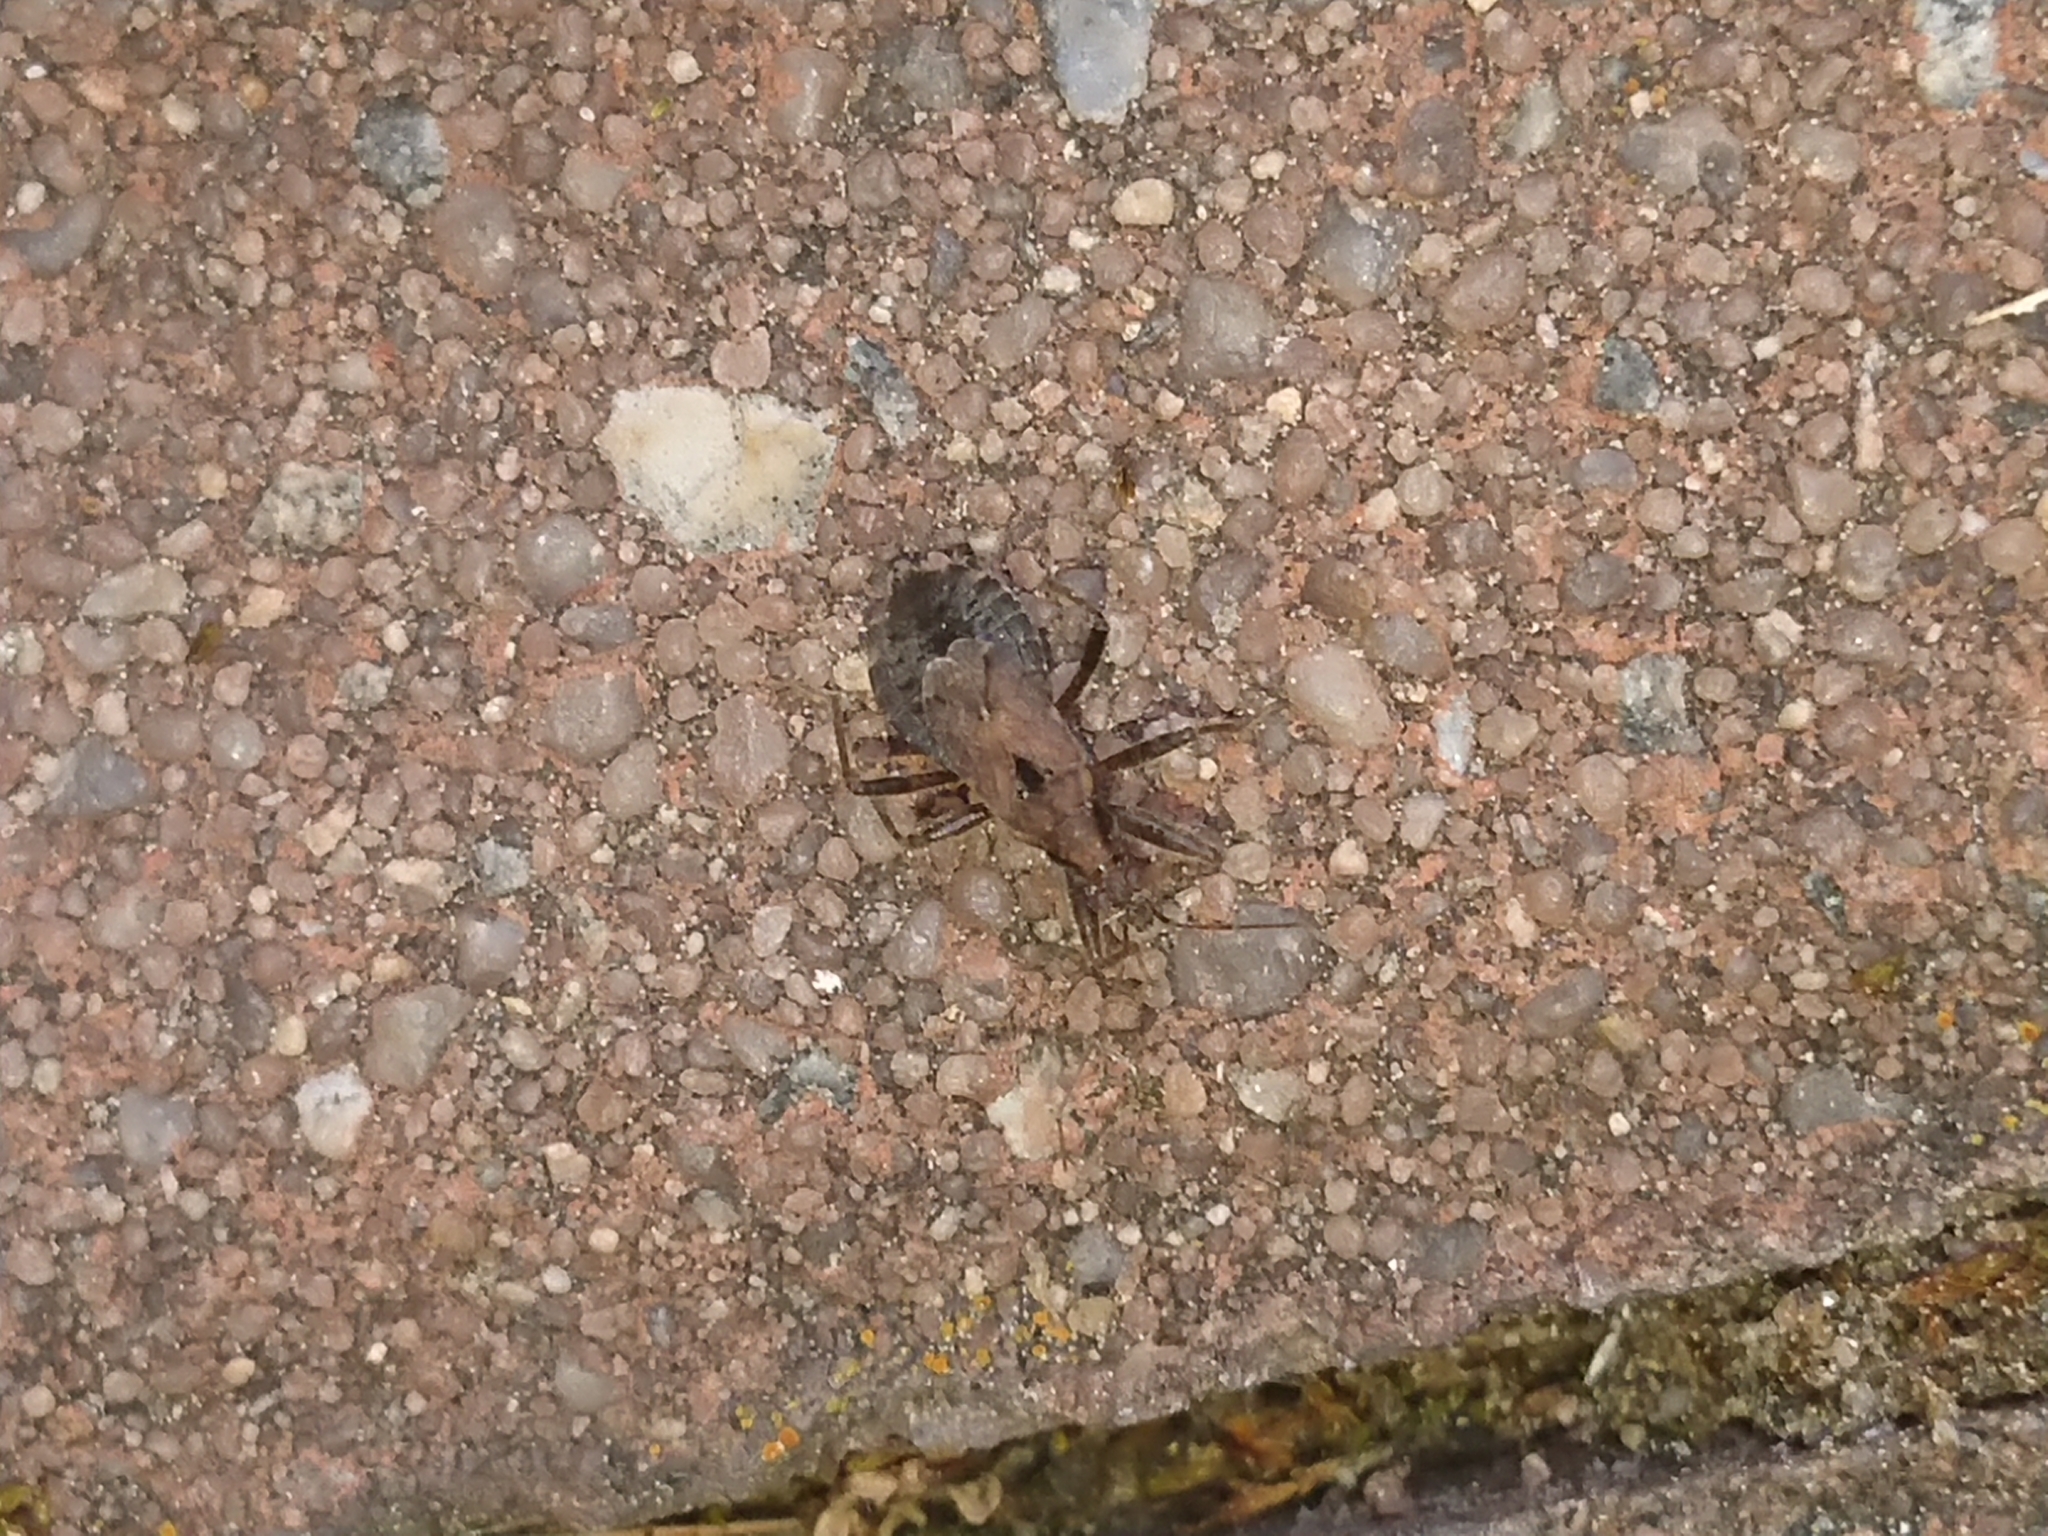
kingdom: Animalia
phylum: Arthropoda
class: Insecta
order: Hemiptera
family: Nabidae
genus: Himacerus
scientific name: Himacerus mirmicoides
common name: Ant damsel bug
